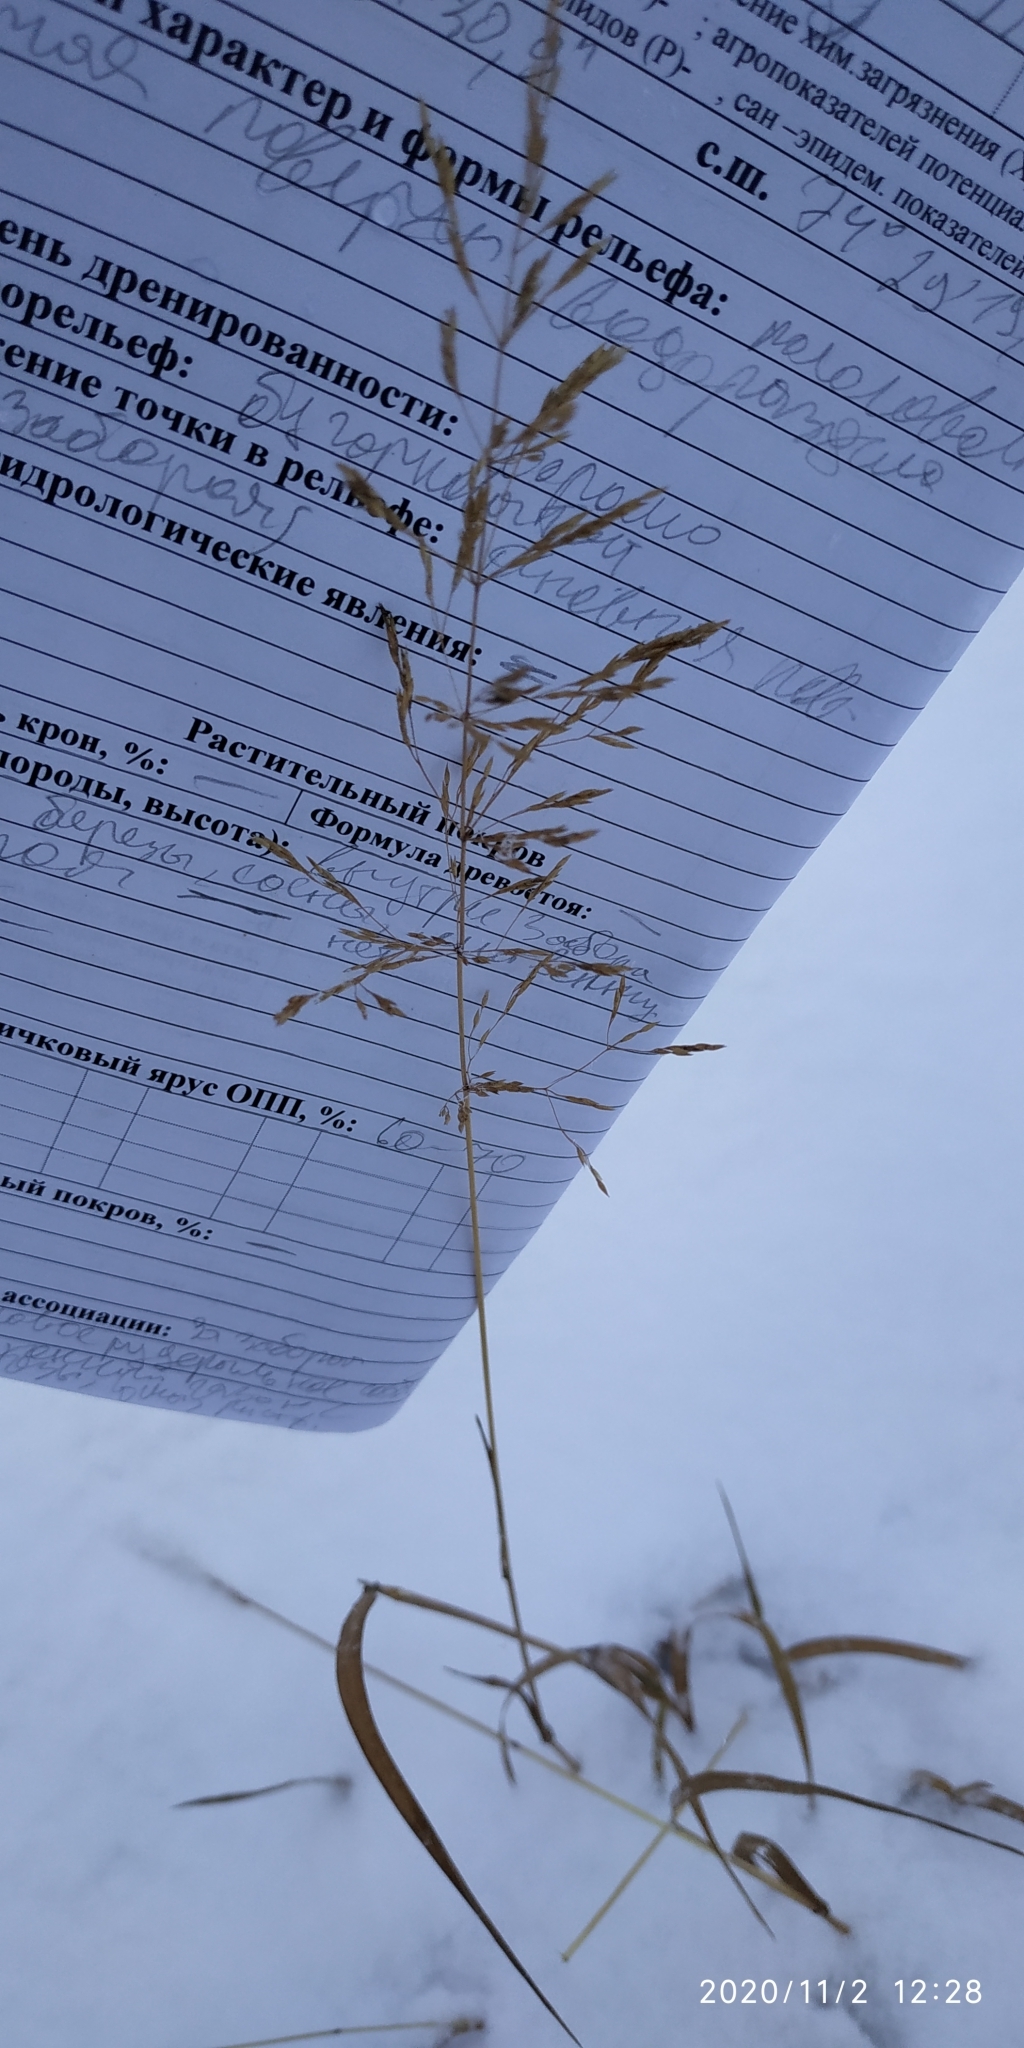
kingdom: Plantae
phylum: Tracheophyta
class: Liliopsida
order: Poales
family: Poaceae
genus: Agrostis
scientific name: Agrostis gigantea
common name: Black bent
